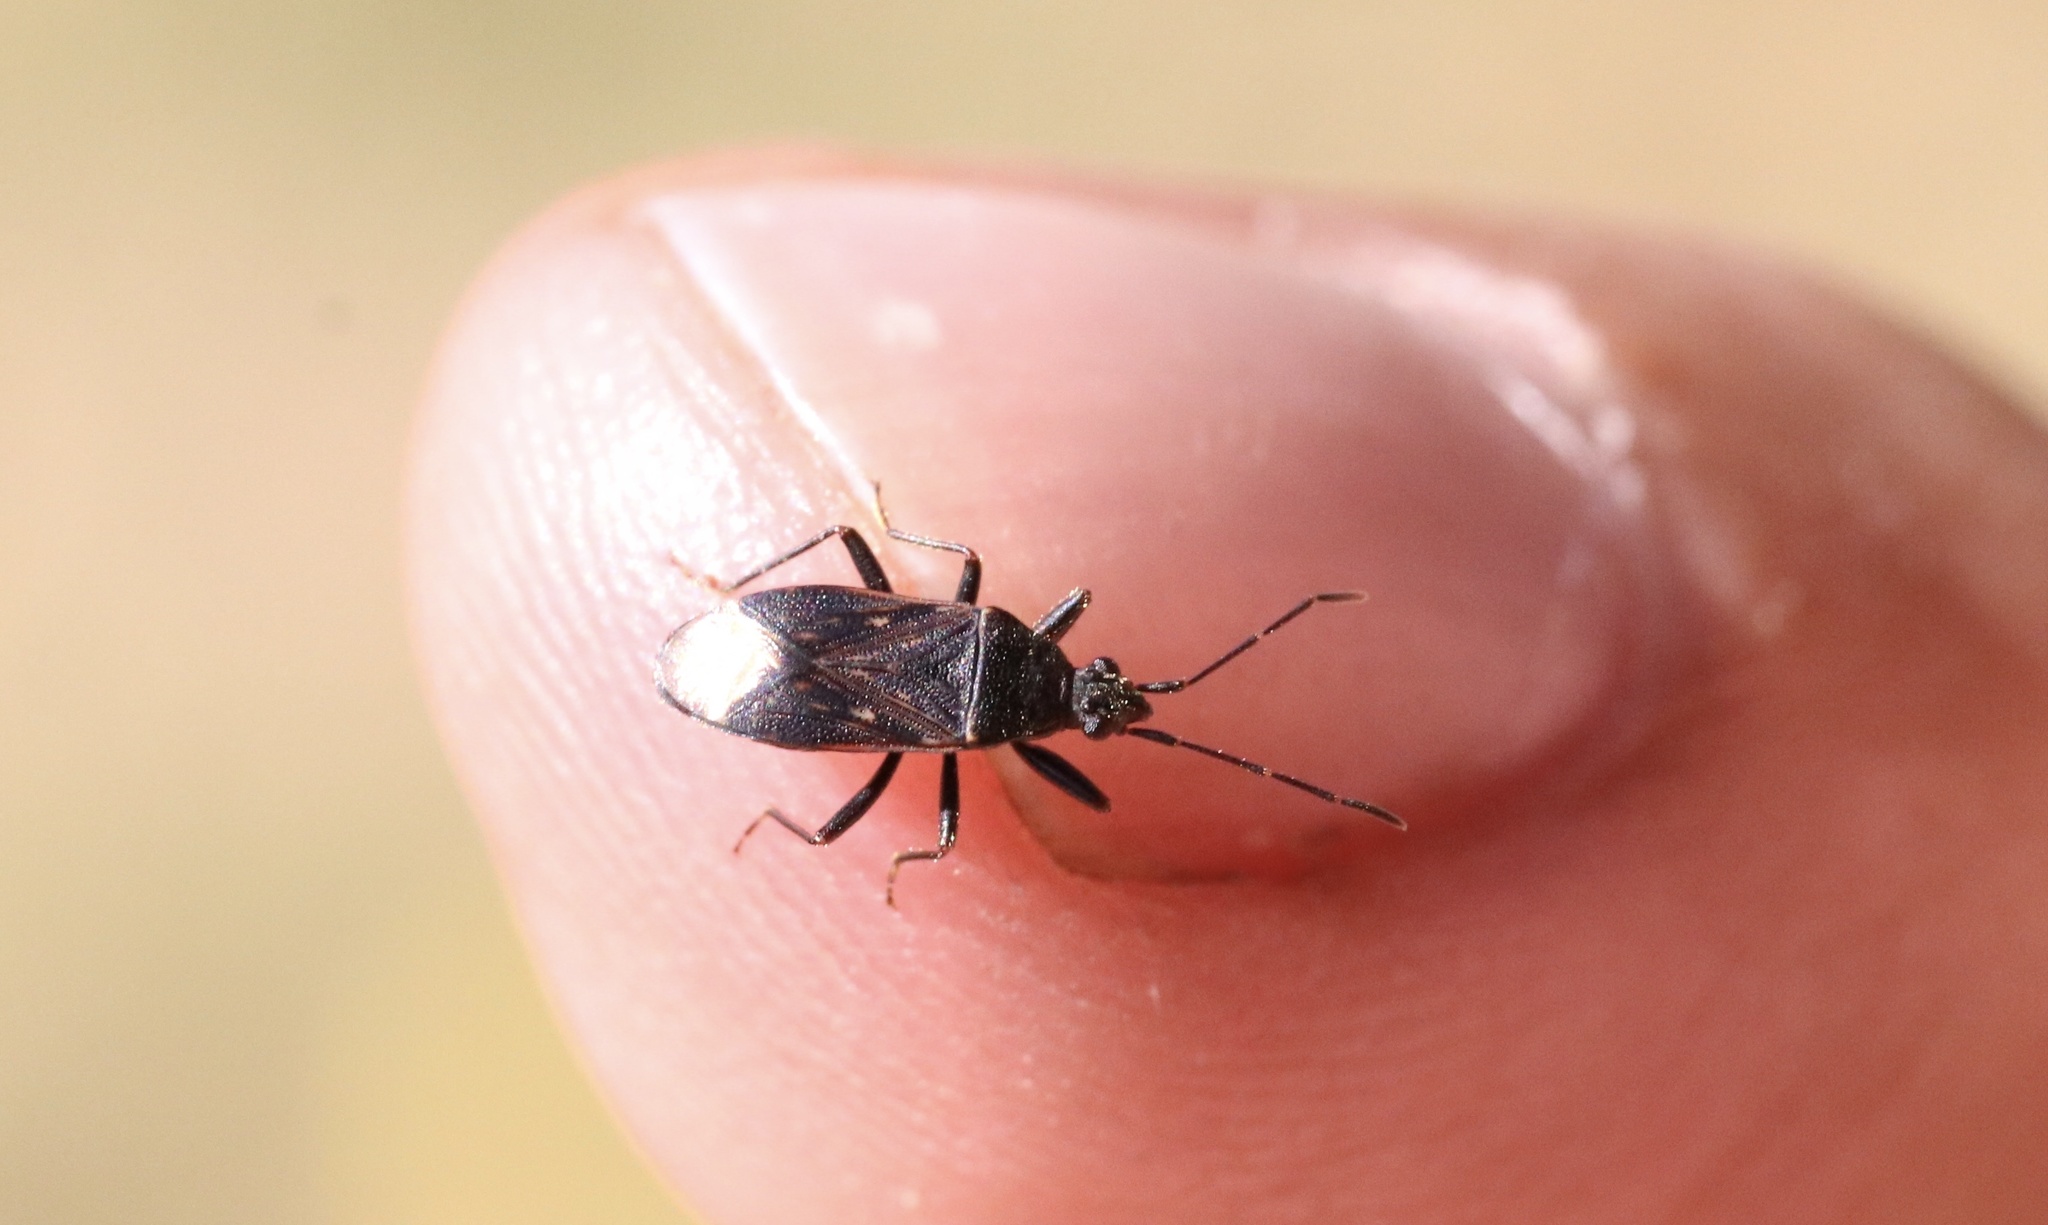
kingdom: Animalia
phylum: Arthropoda
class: Insecta
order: Hemiptera
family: Rhyparochromidae
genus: Bergidea
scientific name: Bergidea atrata
